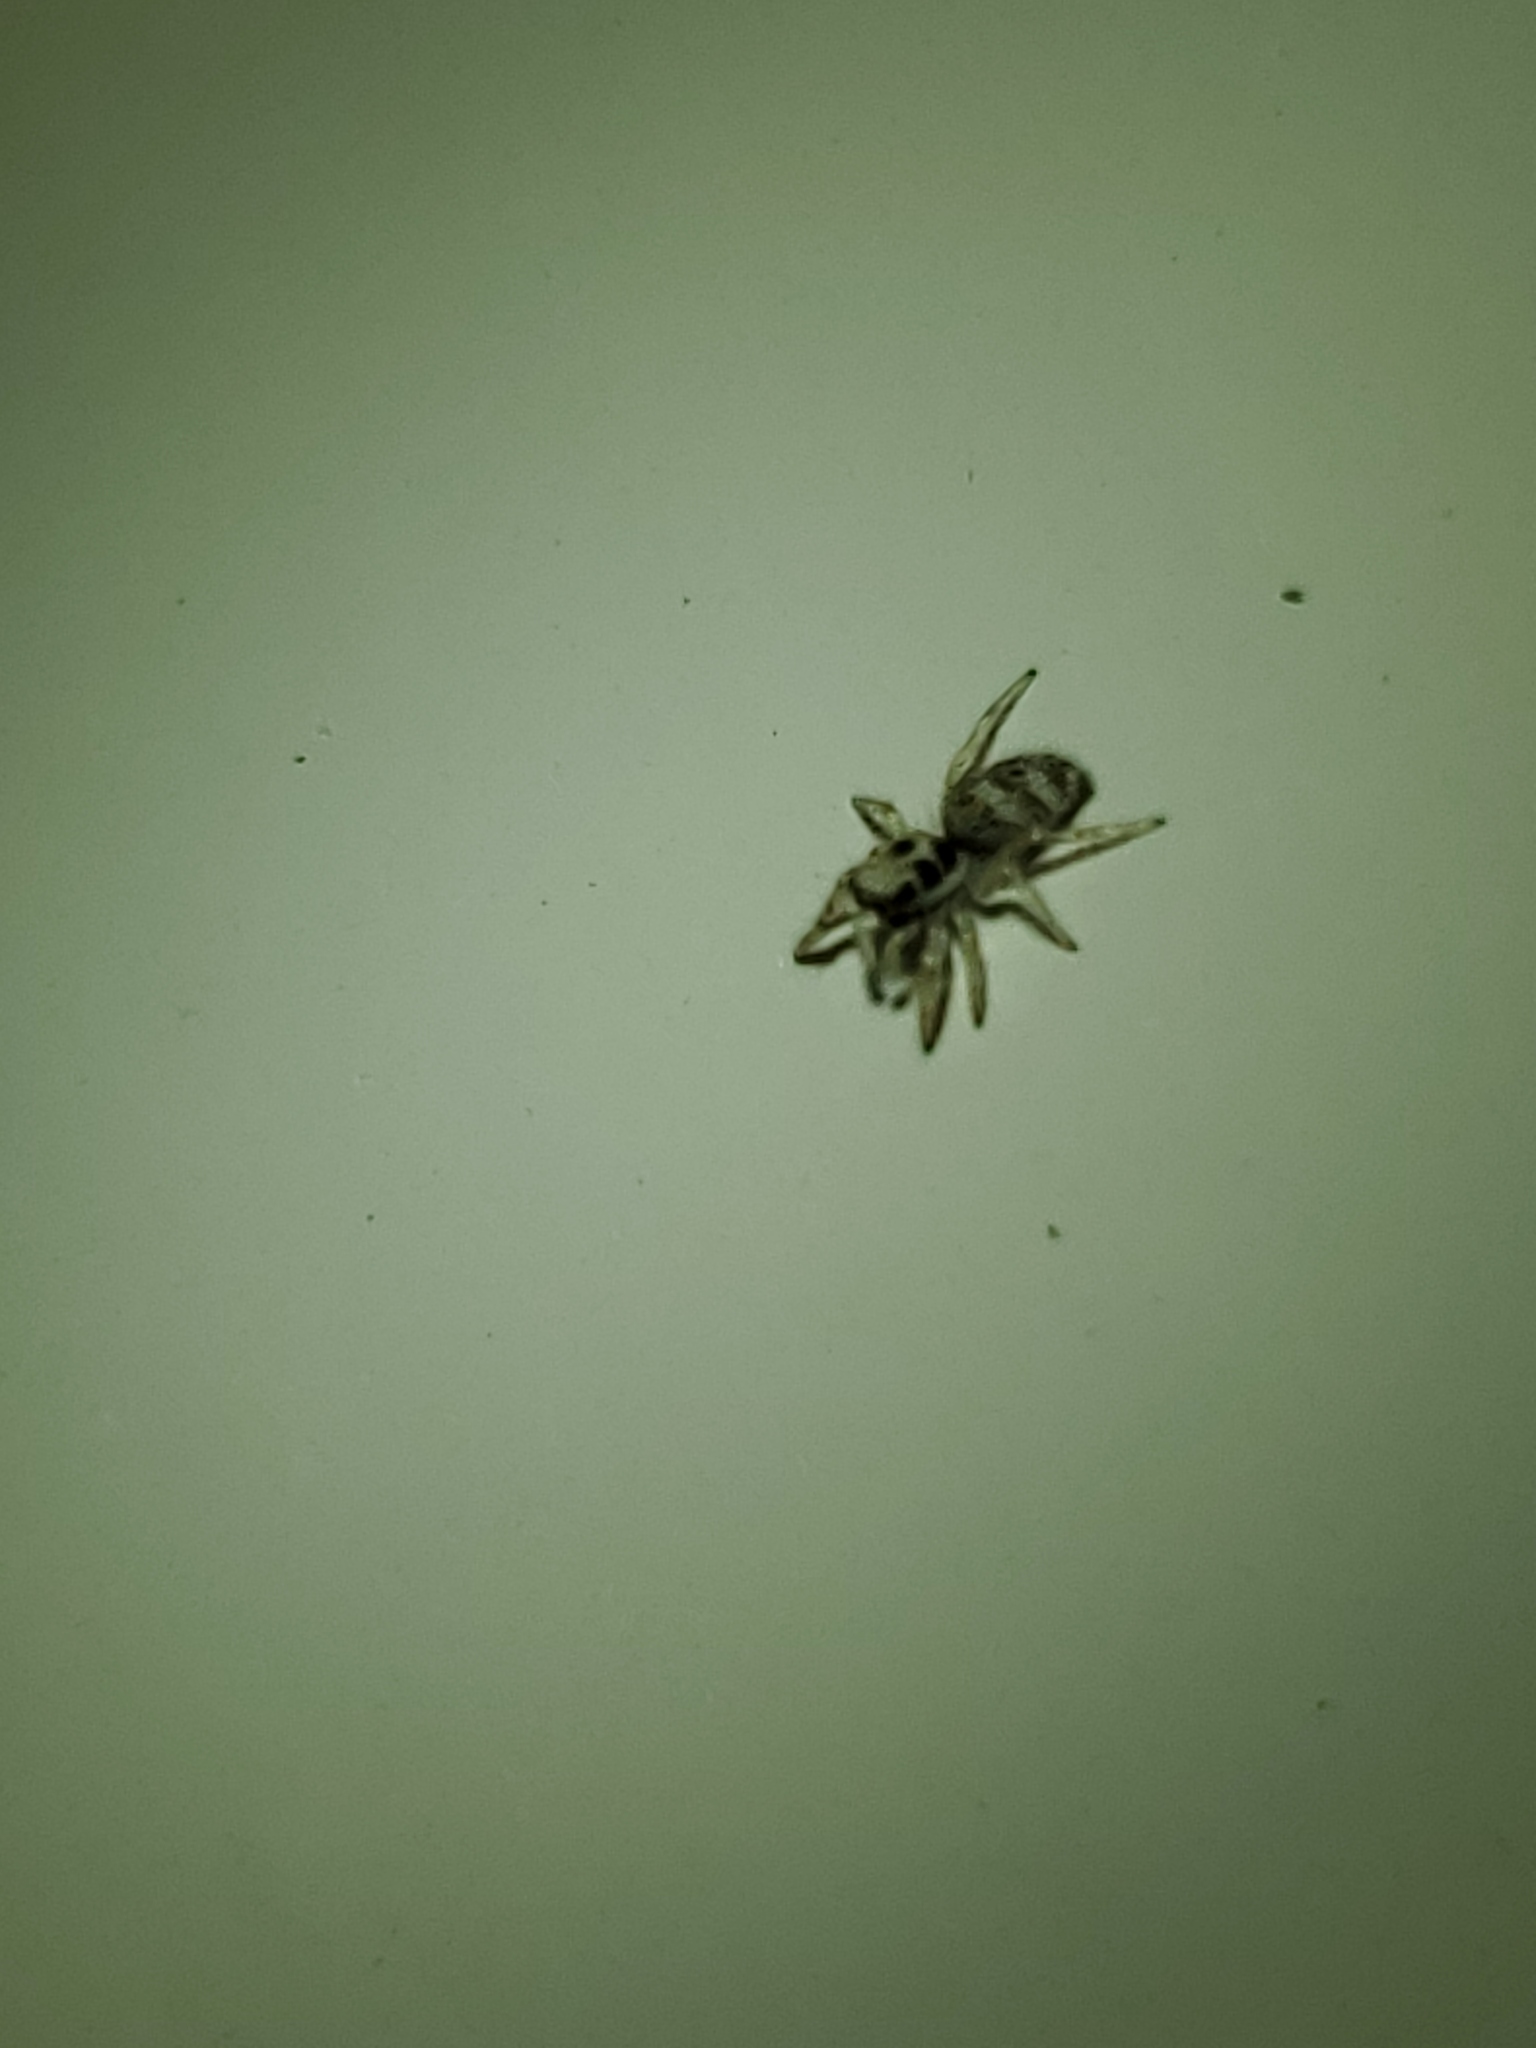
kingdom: Animalia
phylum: Arthropoda
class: Arachnida
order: Araneae
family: Salticidae
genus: Salticus
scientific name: Salticus scenicus
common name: Zebra jumper
